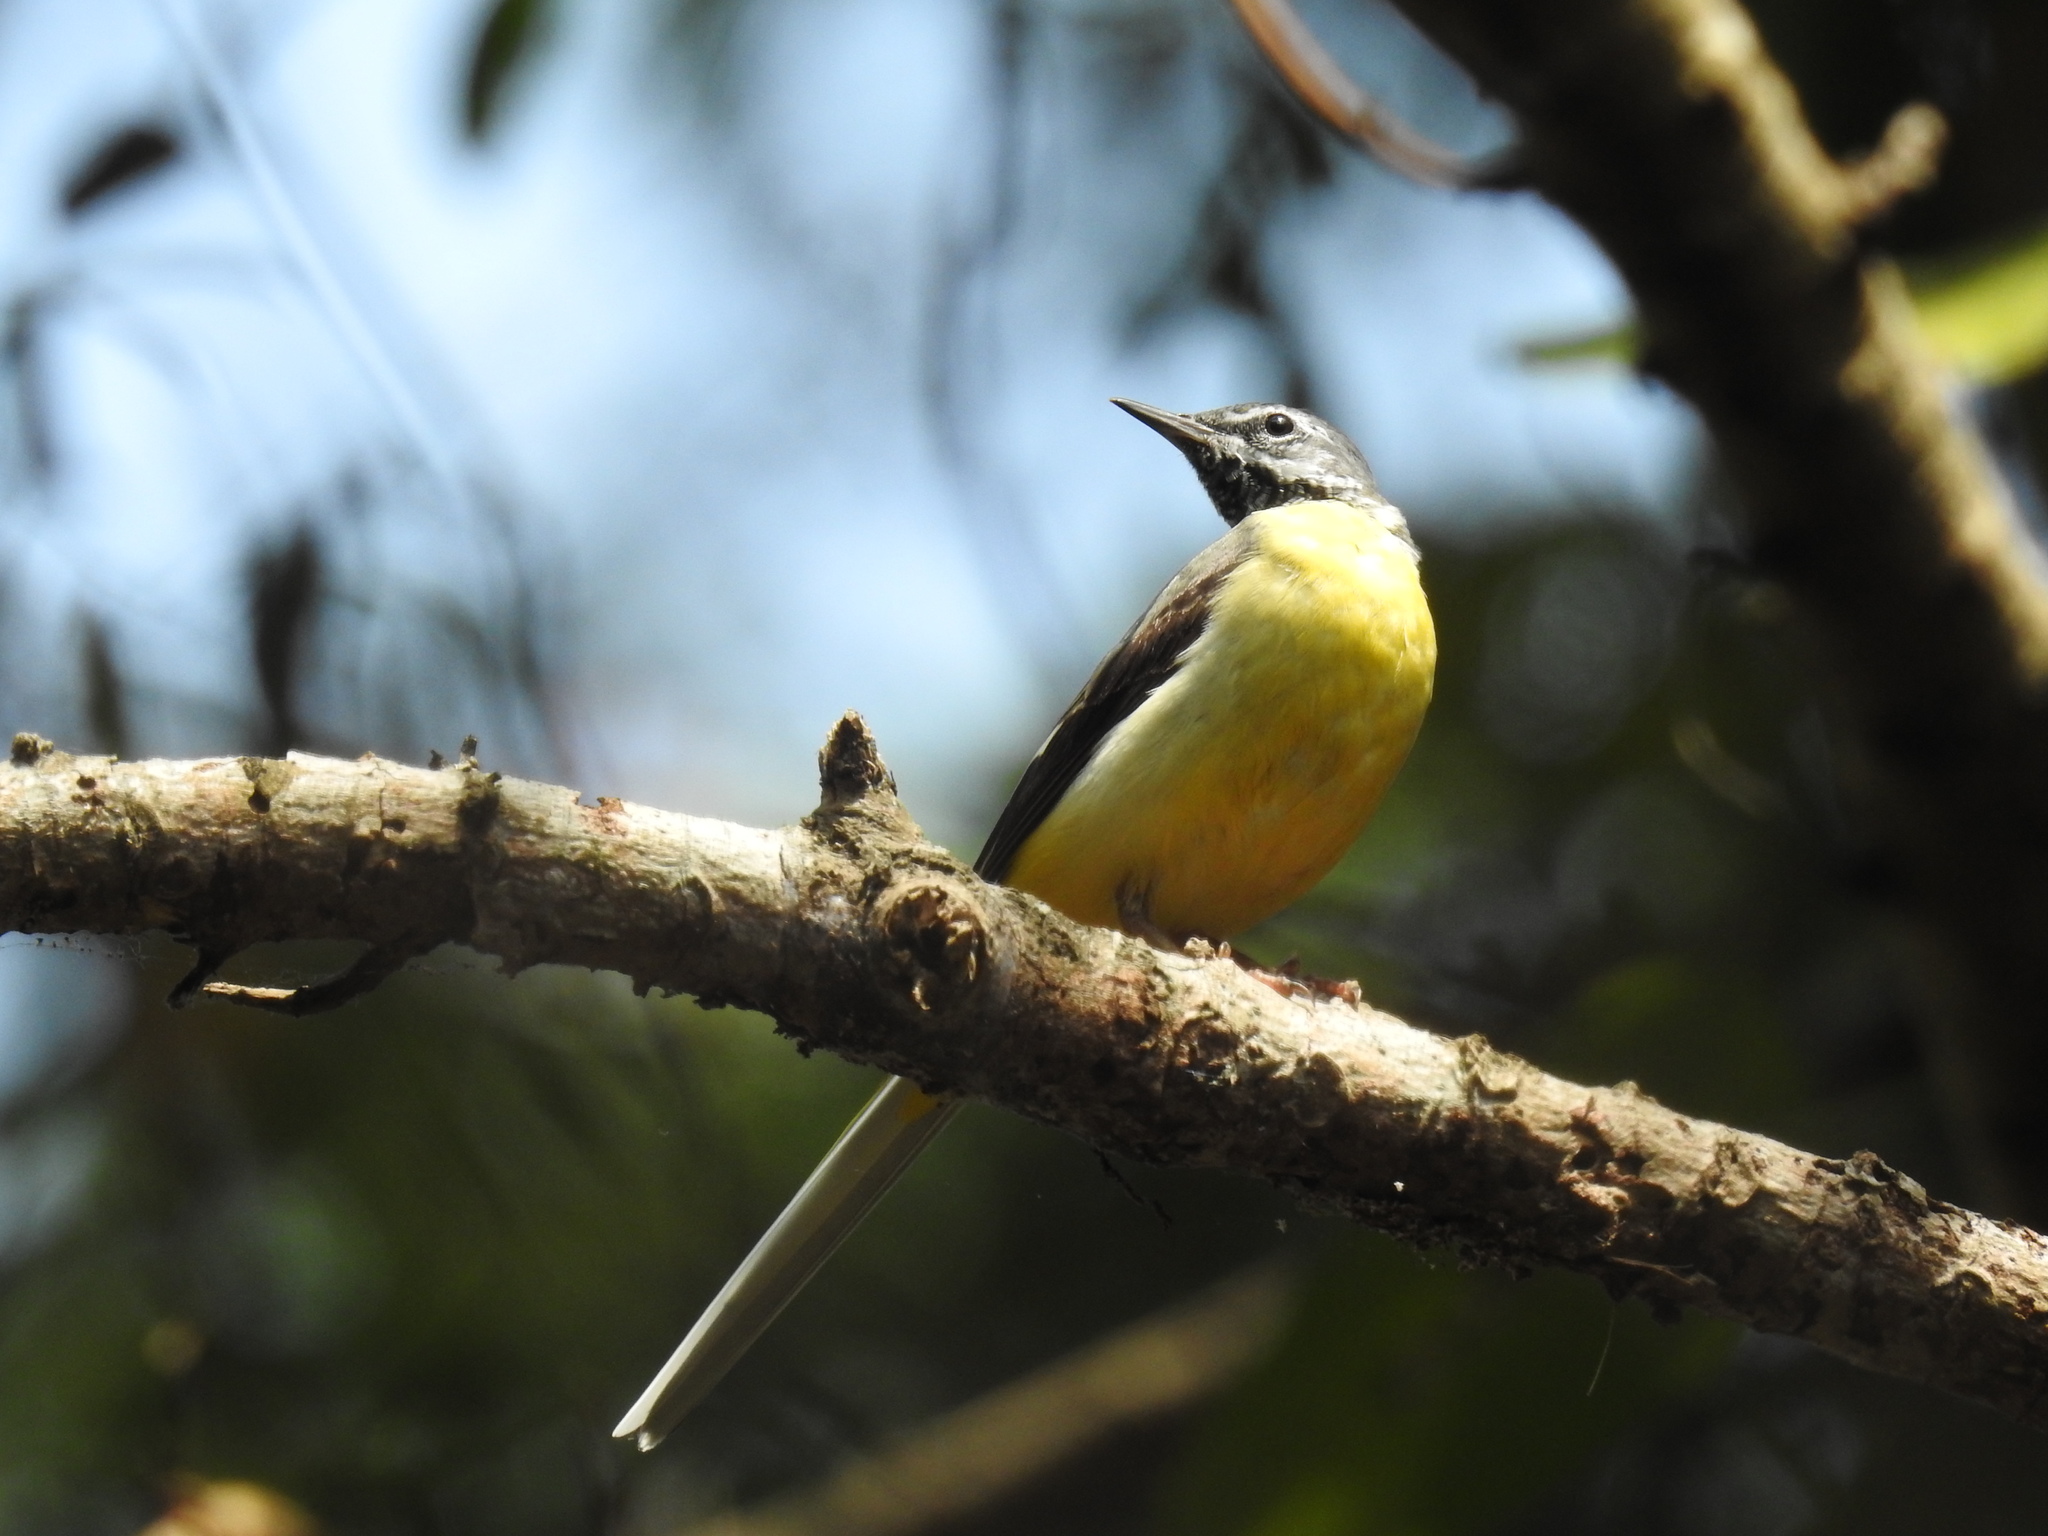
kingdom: Animalia
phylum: Chordata
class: Aves
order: Passeriformes
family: Motacillidae
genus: Motacilla
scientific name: Motacilla cinerea
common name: Grey wagtail
